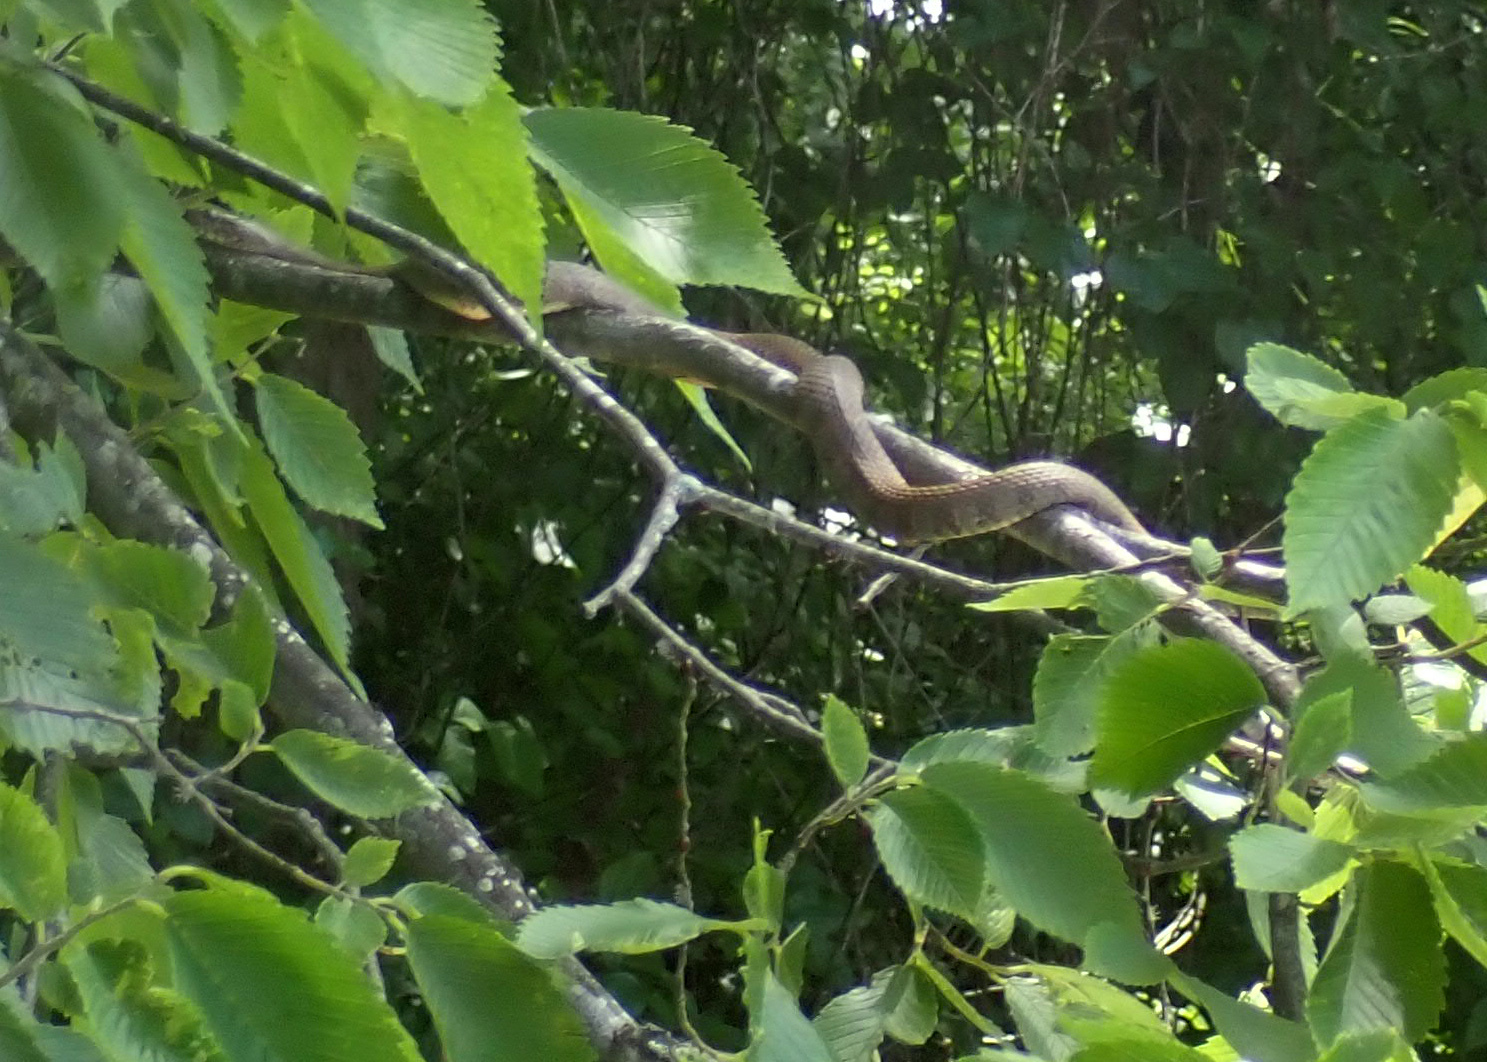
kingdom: Animalia
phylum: Chordata
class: Squamata
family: Colubridae
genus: Nerodia
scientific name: Nerodia sipedon
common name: Northern water snake
